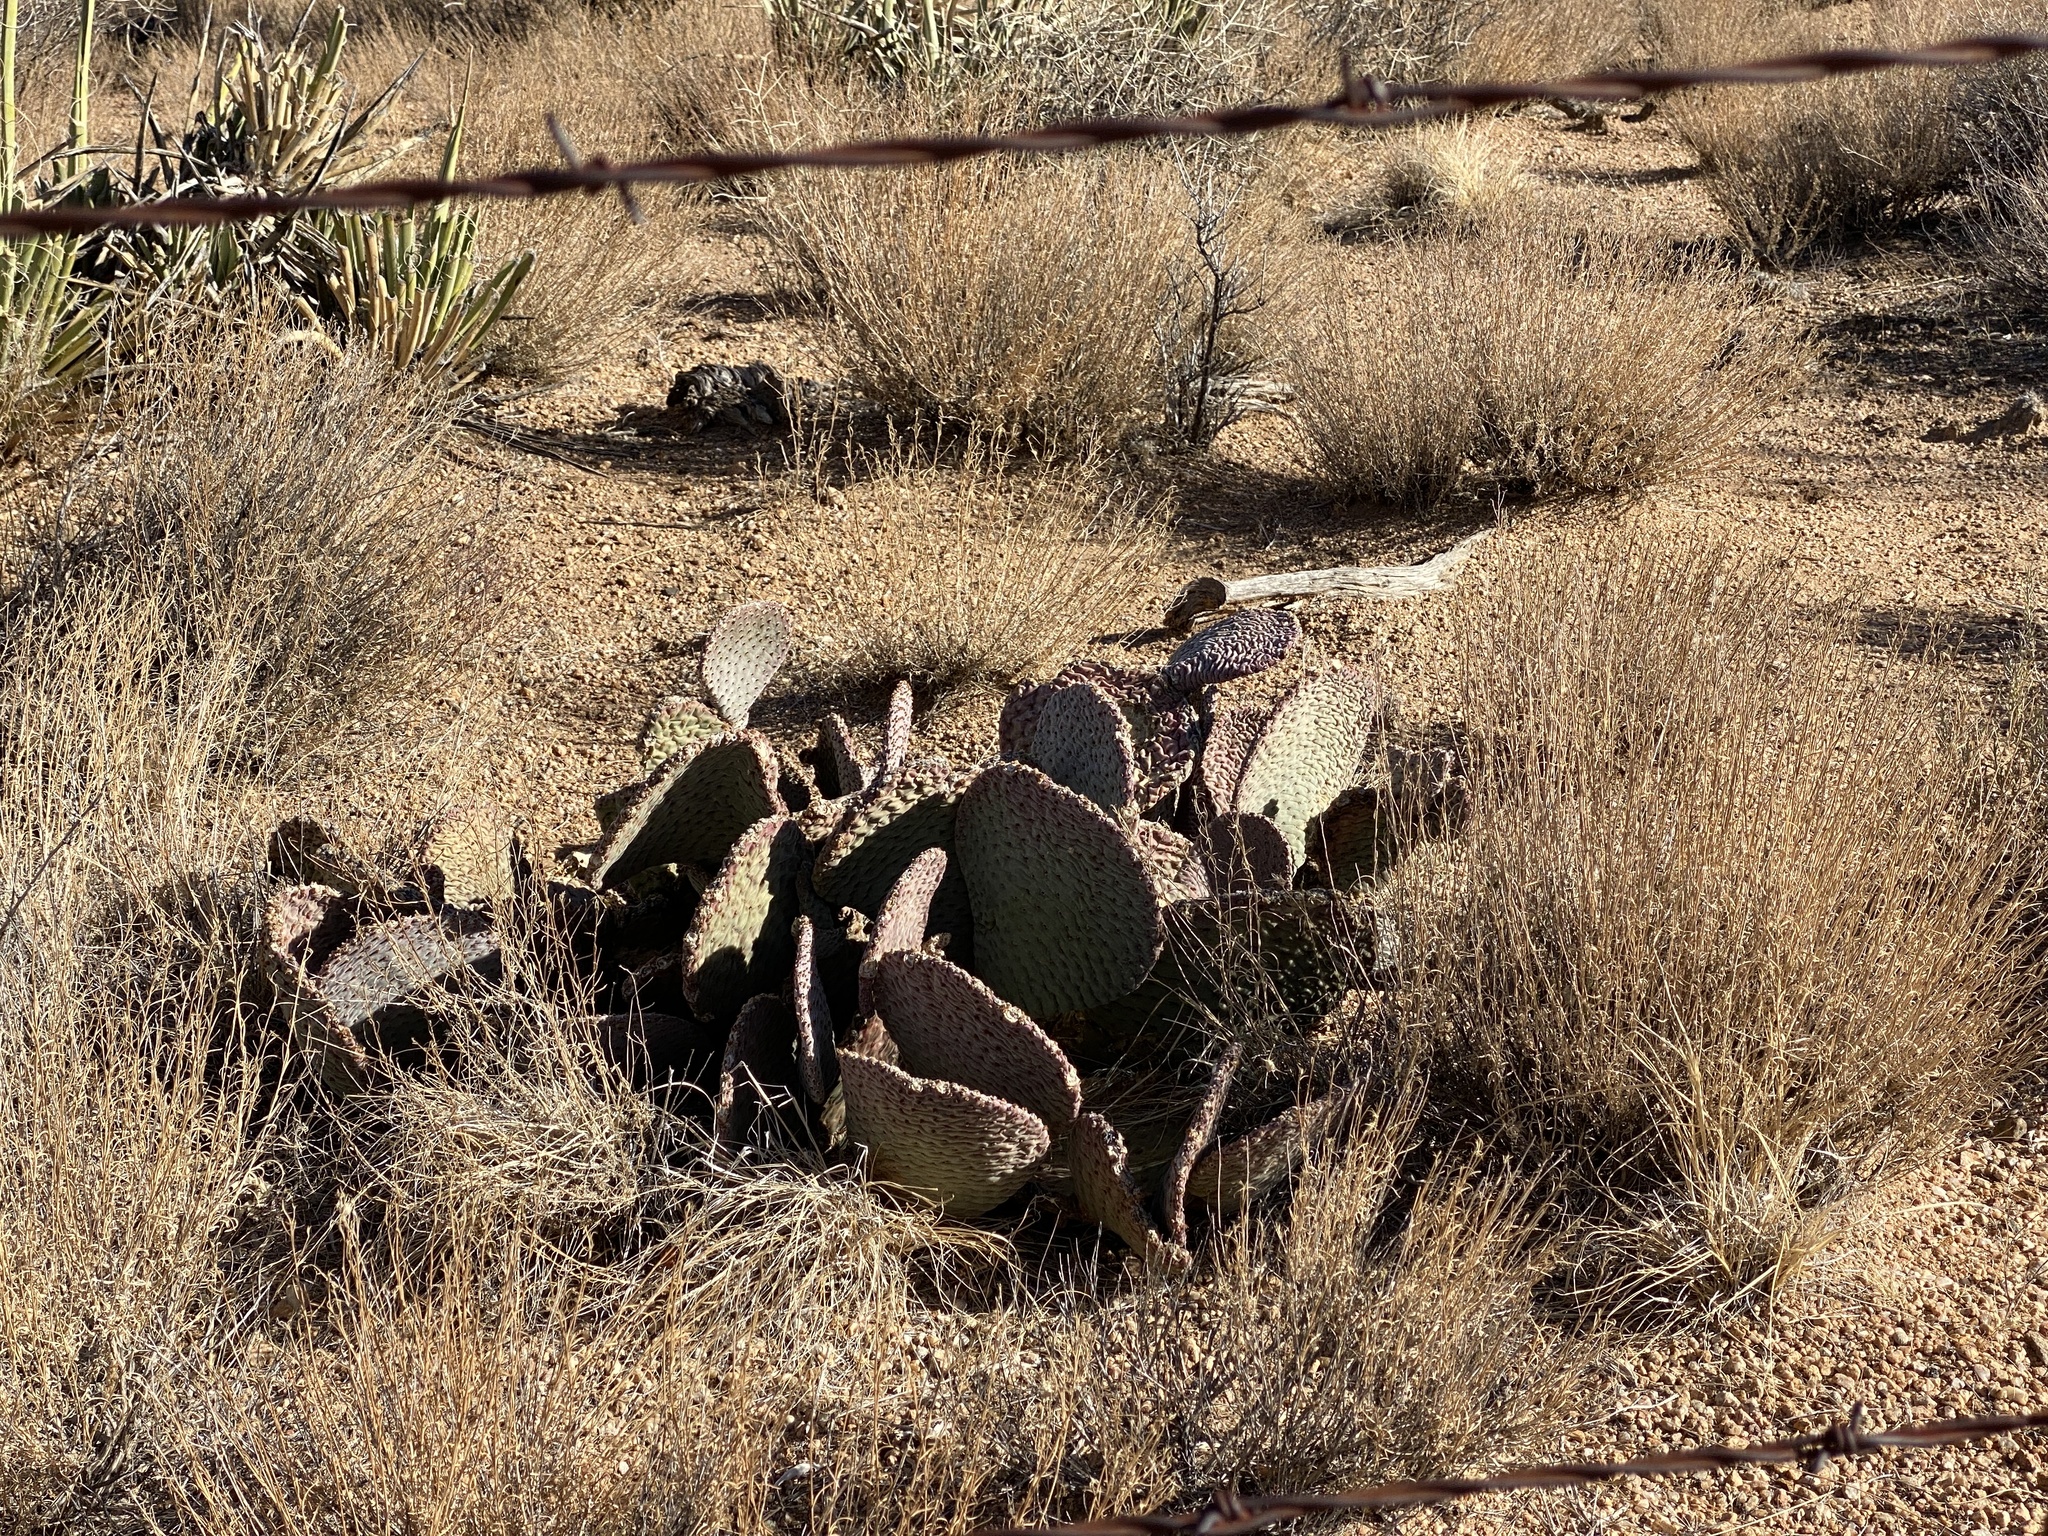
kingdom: Plantae
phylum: Tracheophyta
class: Magnoliopsida
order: Caryophyllales
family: Cactaceae
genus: Opuntia
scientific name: Opuntia basilaris
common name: Beavertail prickly-pear
